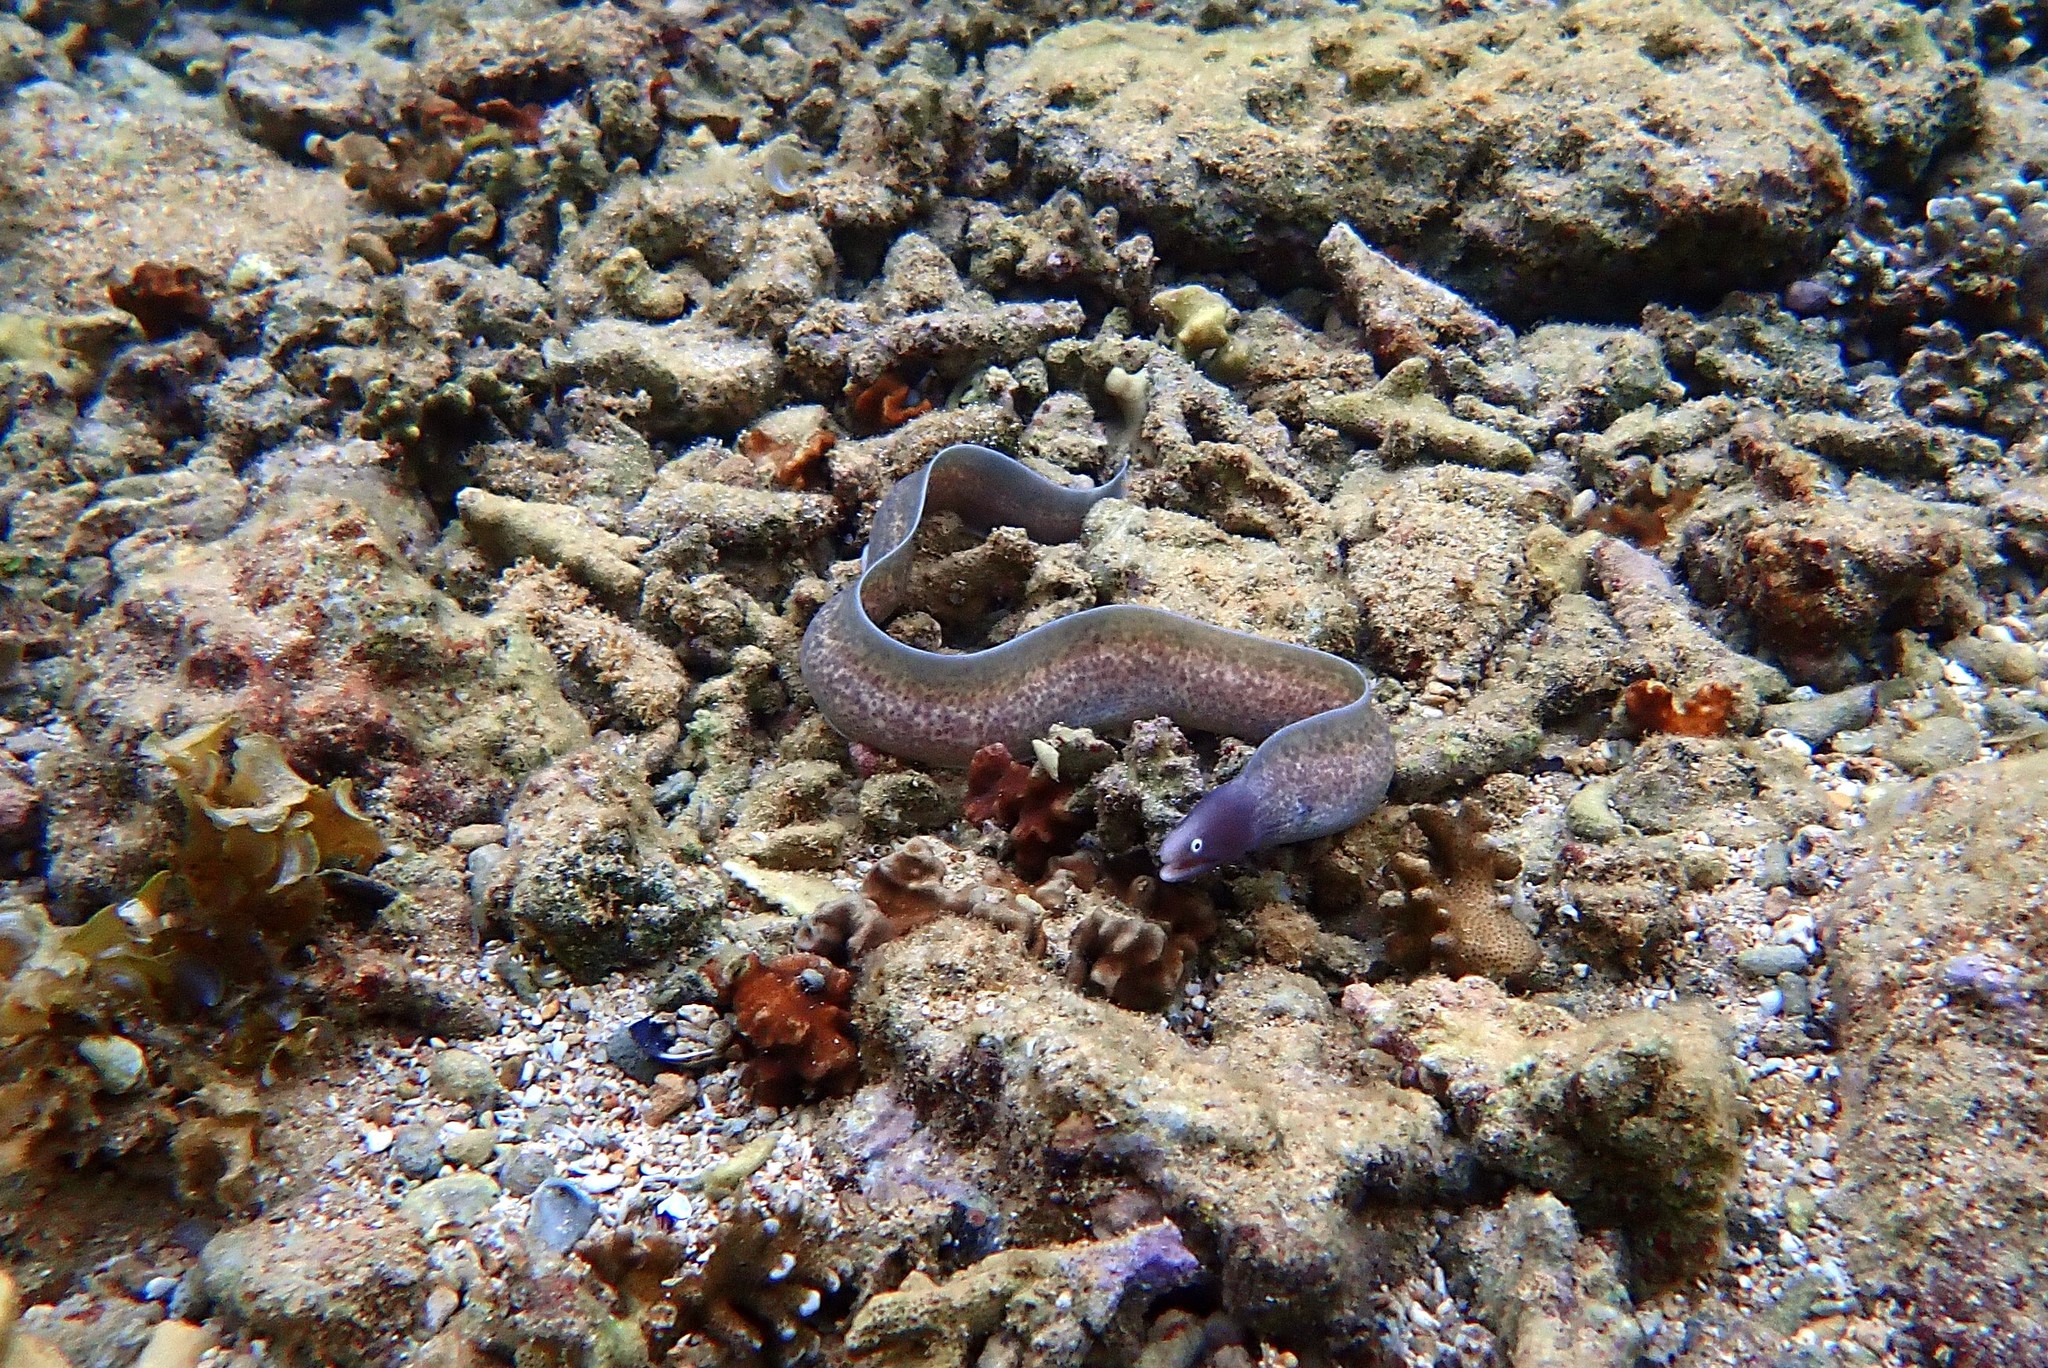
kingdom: Animalia
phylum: Chordata
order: Anguilliformes
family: Muraenidae
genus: Gymnothorax
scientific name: Gymnothorax thyrsoideus
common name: Greyface moray
